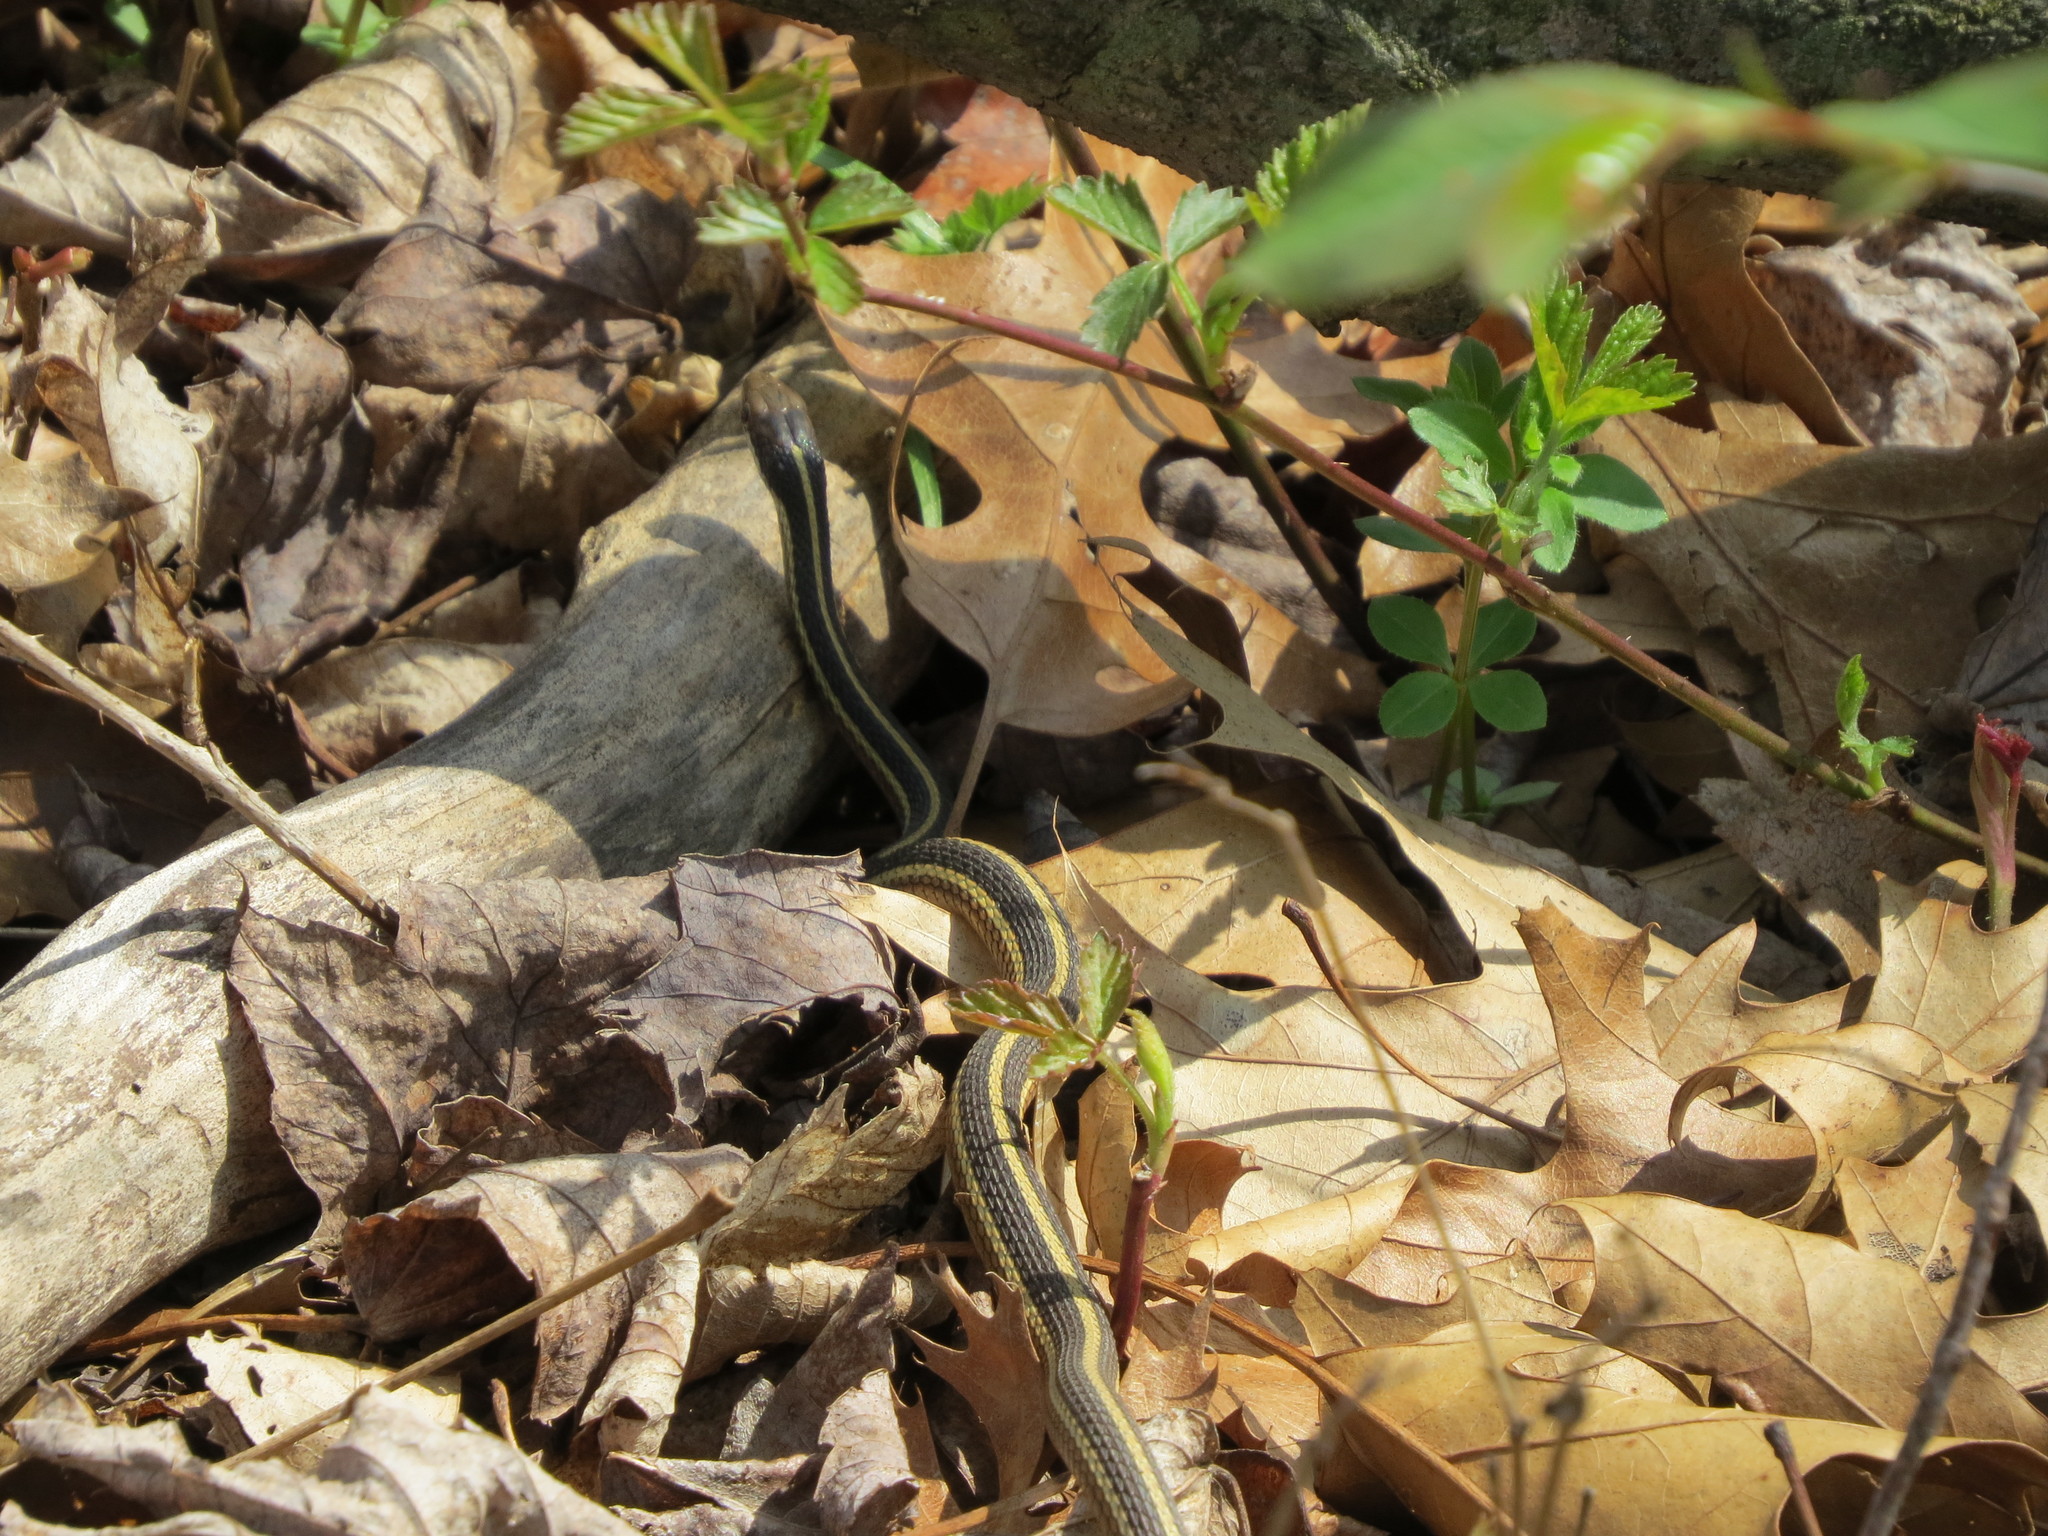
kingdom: Animalia
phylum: Chordata
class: Squamata
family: Colubridae
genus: Thamnophis
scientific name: Thamnophis saurita
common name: Eastern ribbonsnake
